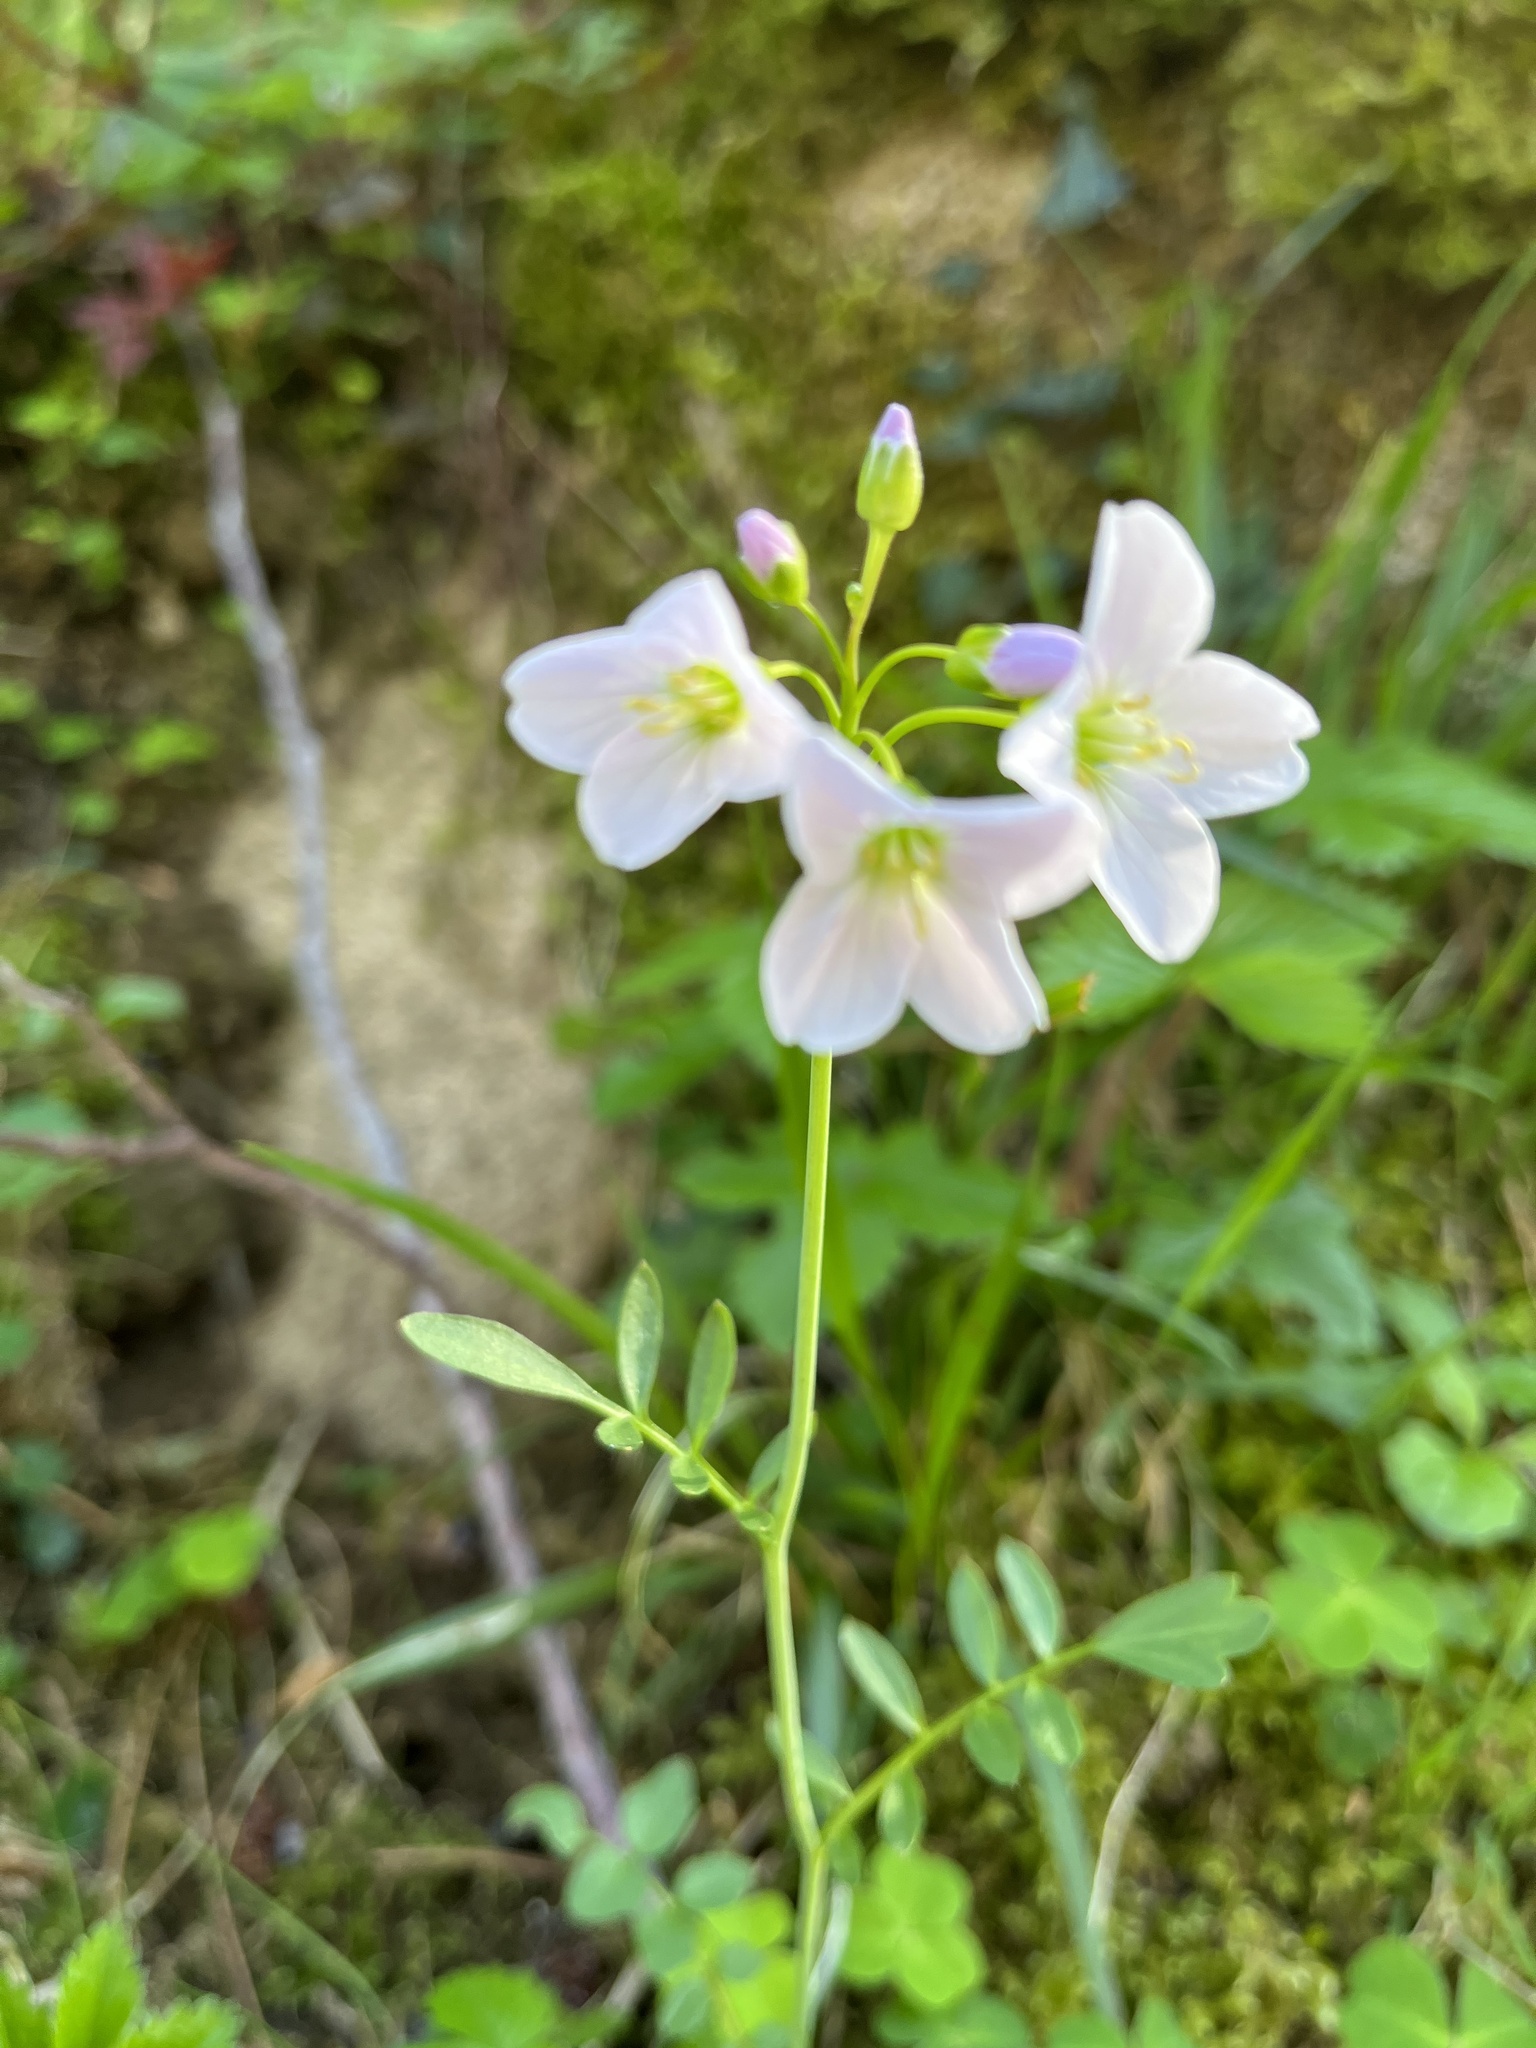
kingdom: Plantae
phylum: Tracheophyta
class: Magnoliopsida
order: Brassicales
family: Brassicaceae
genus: Cardamine
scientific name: Cardamine pratensis
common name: Cuckoo flower
